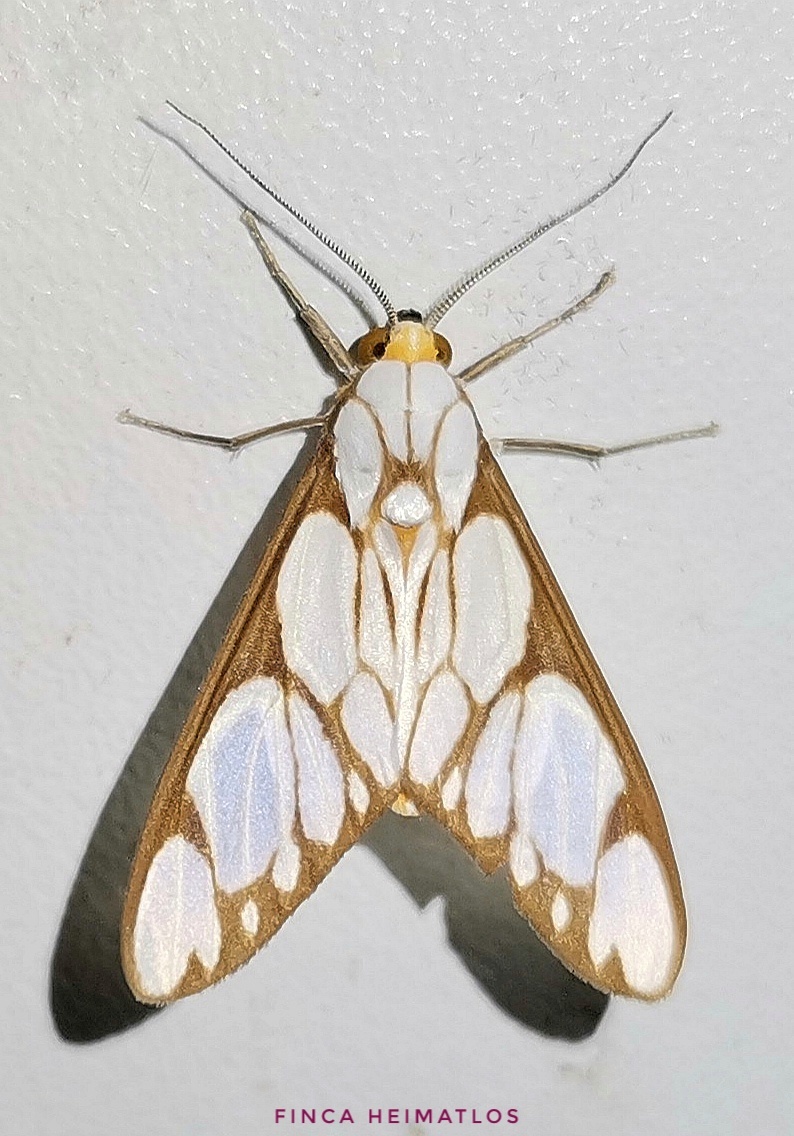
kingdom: Animalia
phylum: Arthropoda
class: Insecta
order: Lepidoptera
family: Erebidae
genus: Robinsonia
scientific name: Robinsonia sanea
